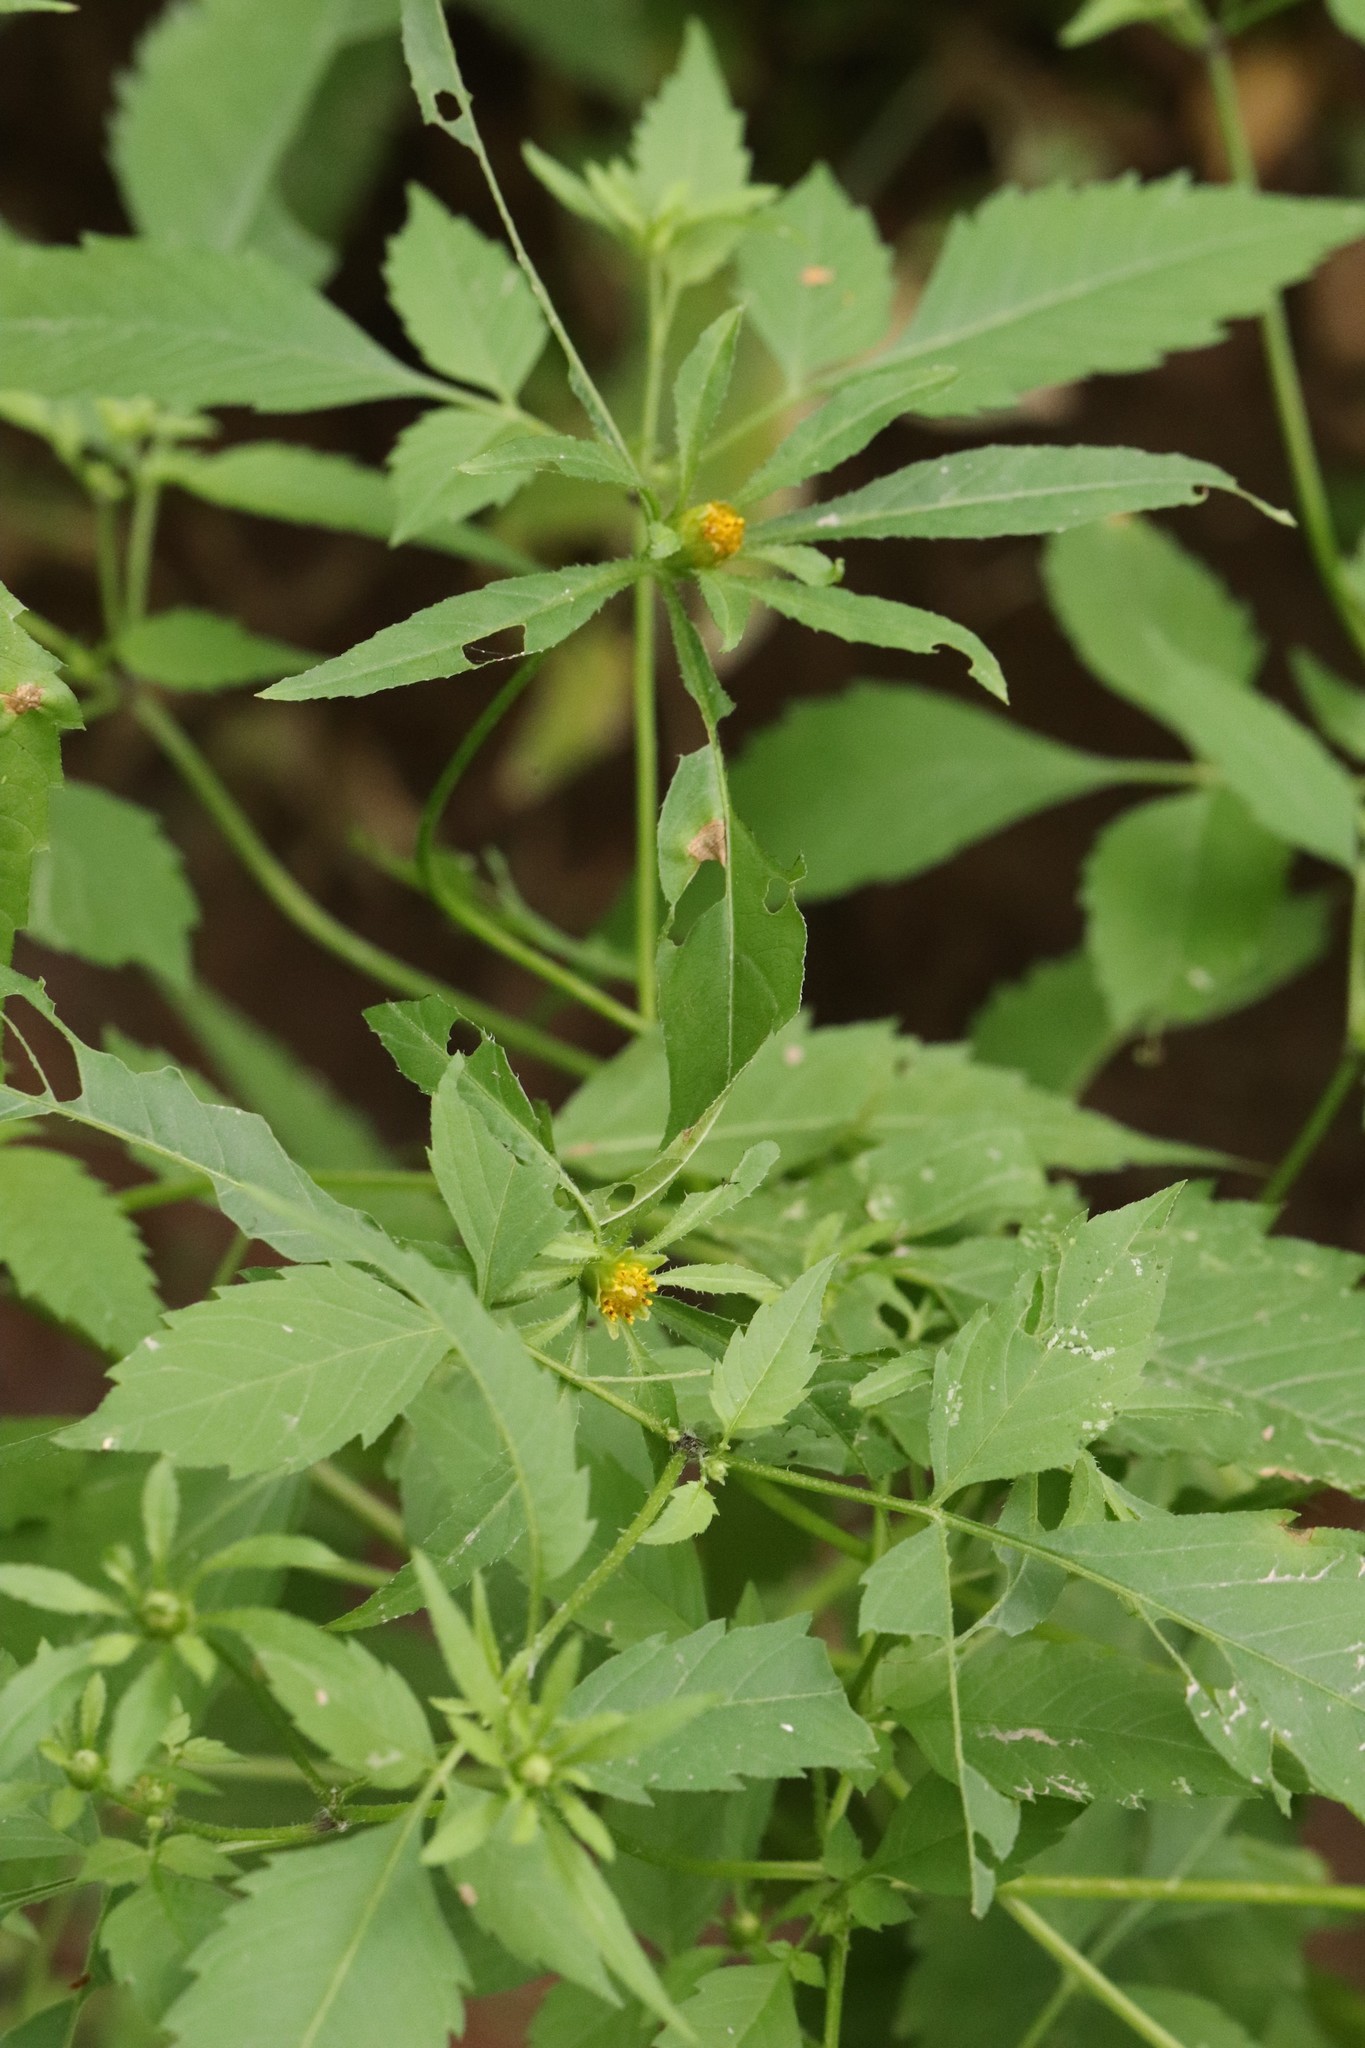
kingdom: Plantae
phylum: Tracheophyta
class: Magnoliopsida
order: Asterales
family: Asteraceae
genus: Bidens
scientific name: Bidens frondosa
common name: Beggarticks
